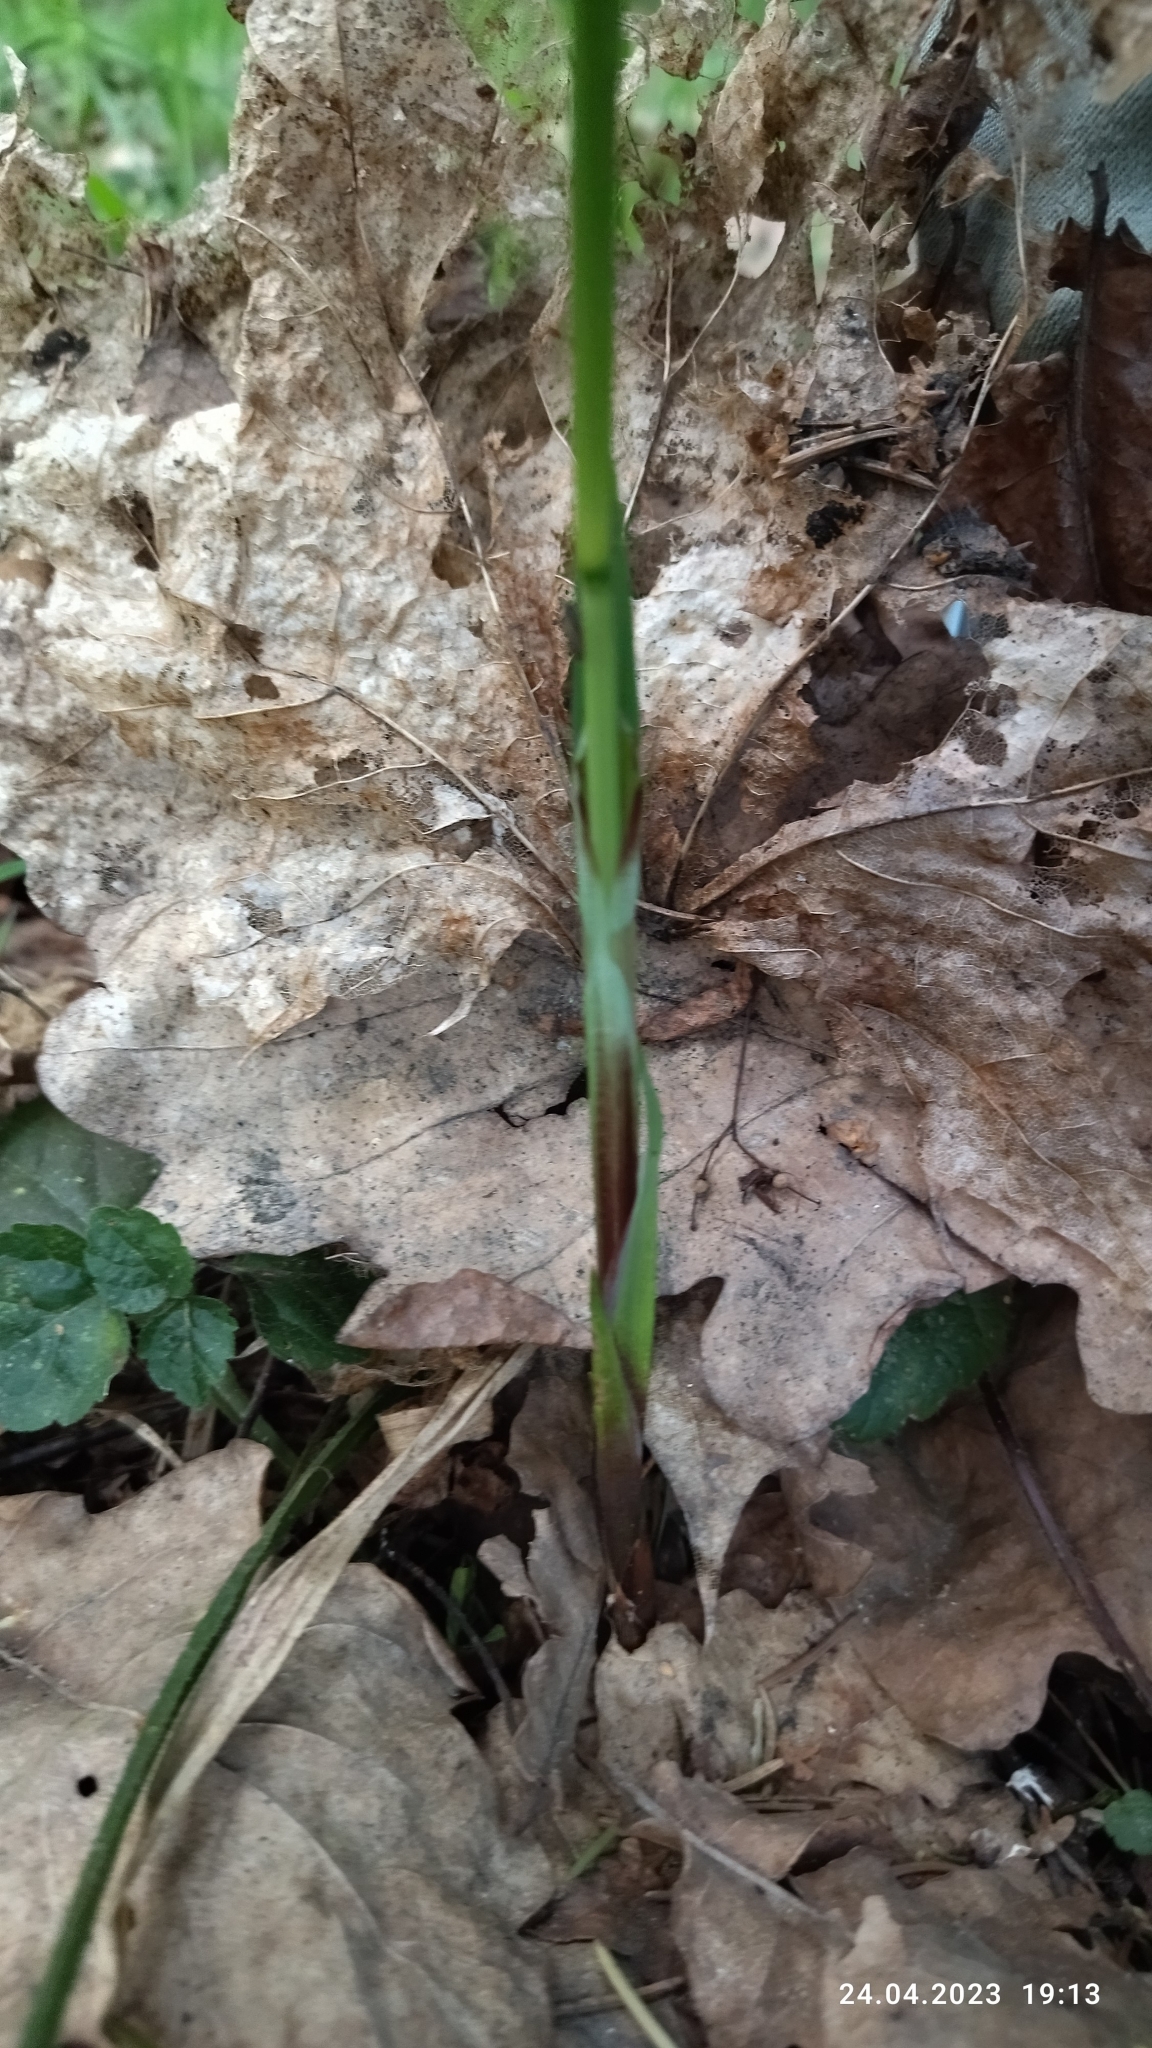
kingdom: Plantae
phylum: Tracheophyta
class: Liliopsida
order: Poales
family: Cyperaceae
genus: Carex
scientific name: Carex pilosa
